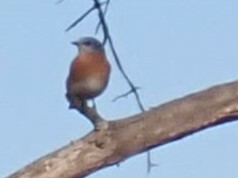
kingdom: Animalia
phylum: Chordata
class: Aves
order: Passeriformes
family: Turdidae
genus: Sialia
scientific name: Sialia sialis
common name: Eastern bluebird
